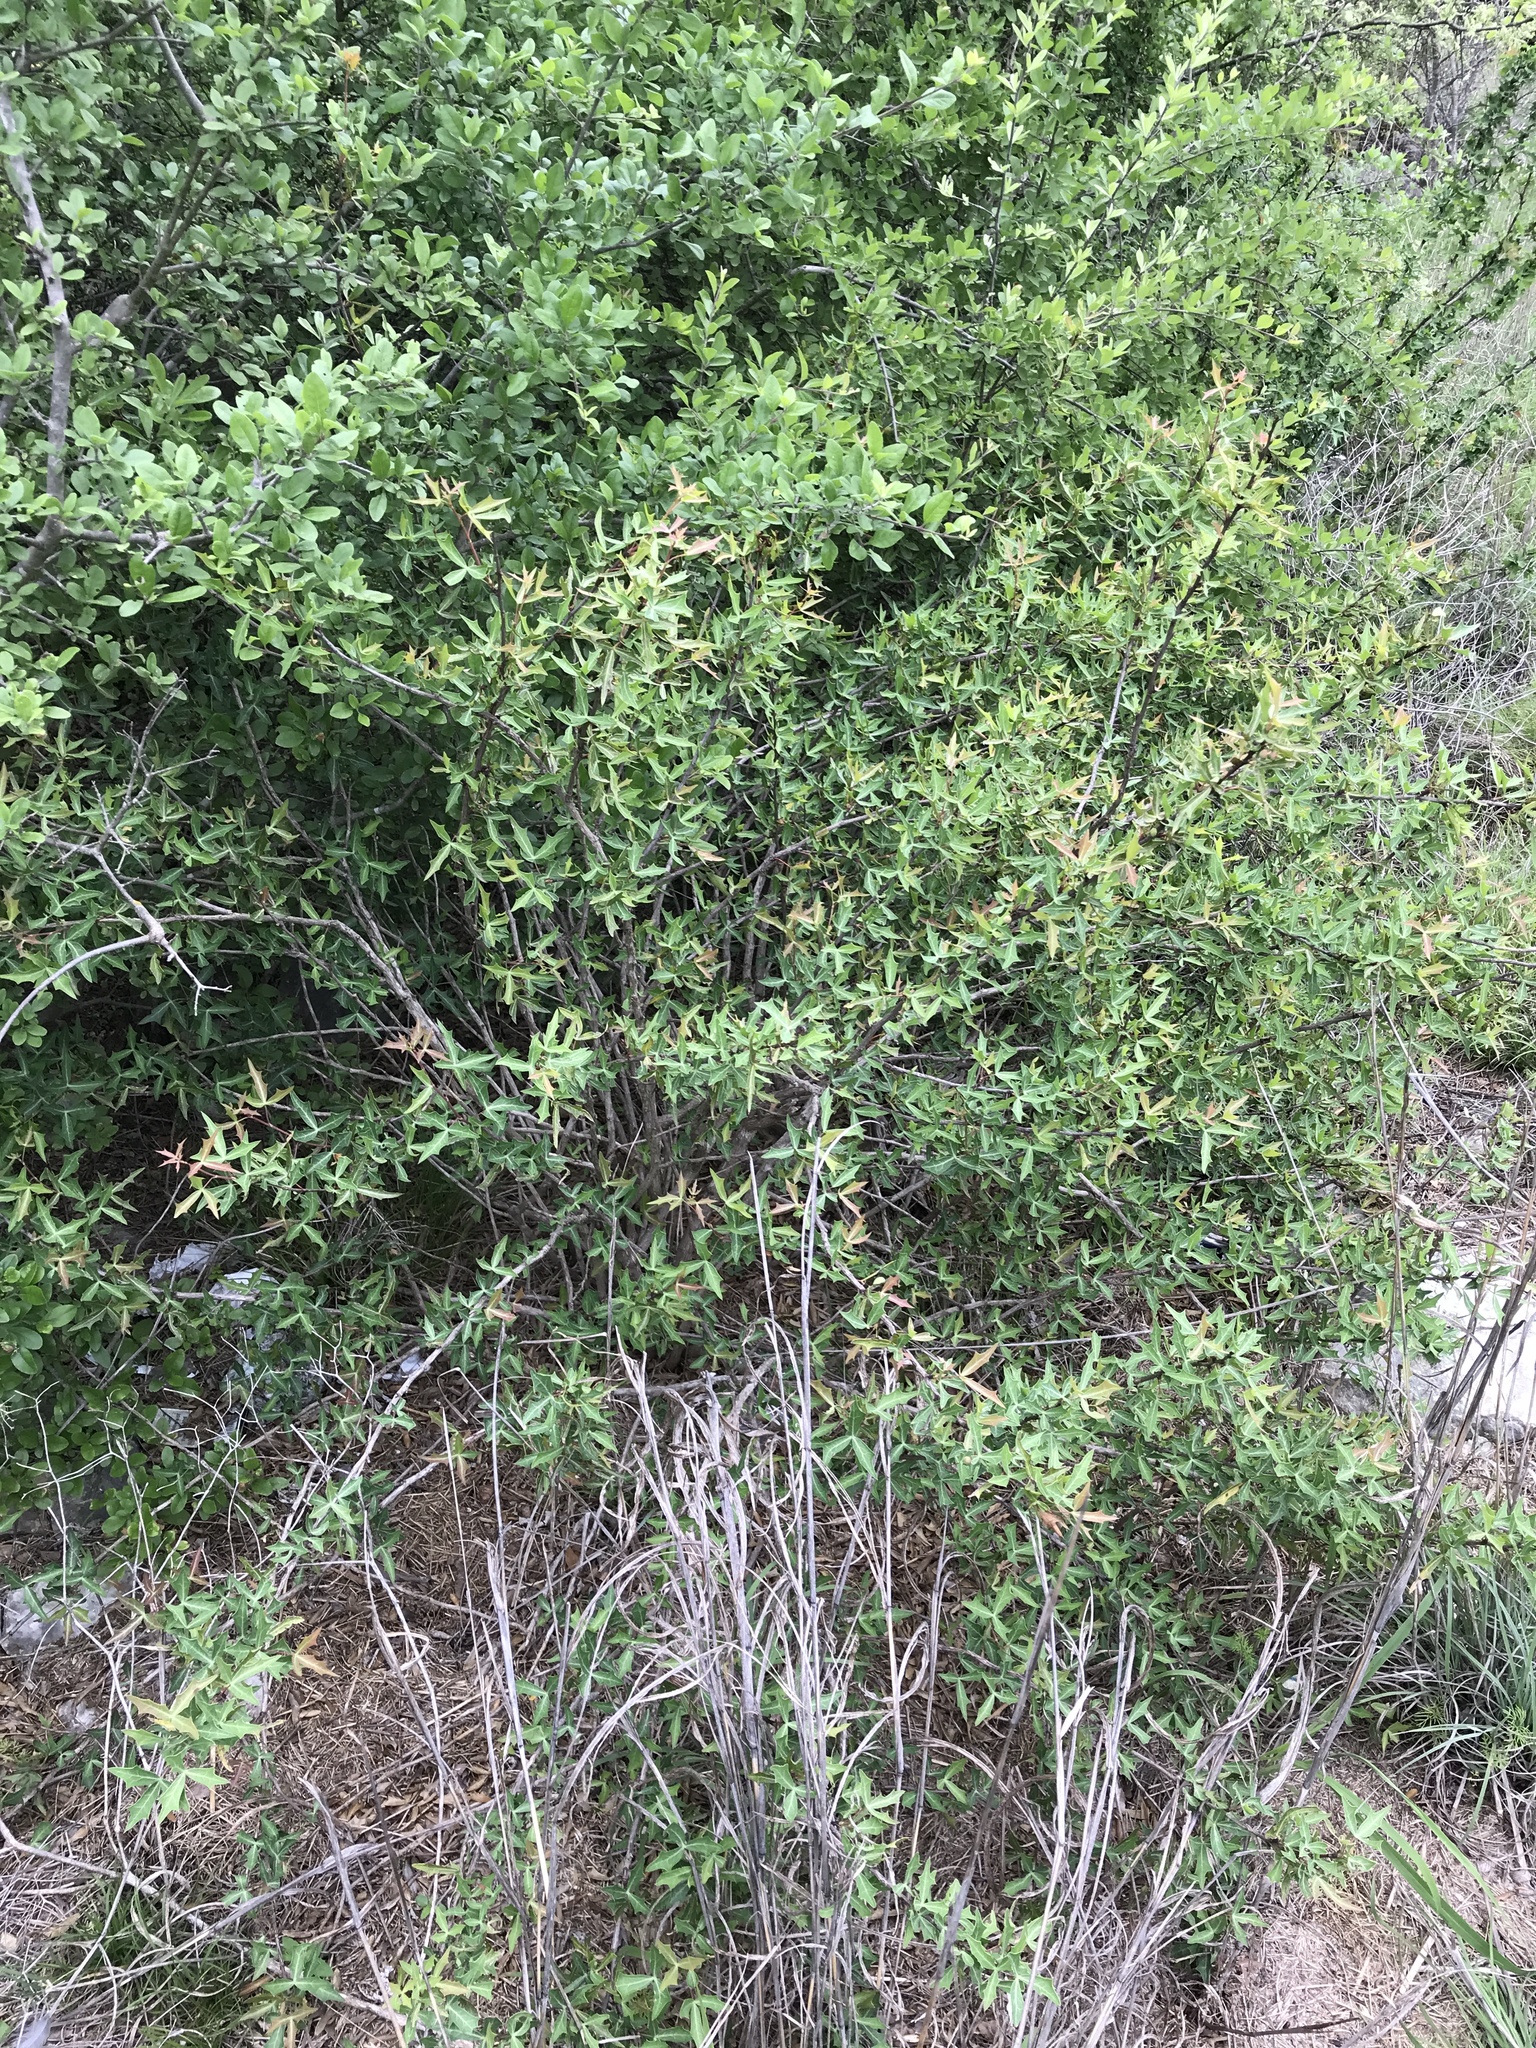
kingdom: Plantae
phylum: Tracheophyta
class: Magnoliopsida
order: Ranunculales
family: Berberidaceae
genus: Alloberberis
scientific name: Alloberberis trifoliolata
